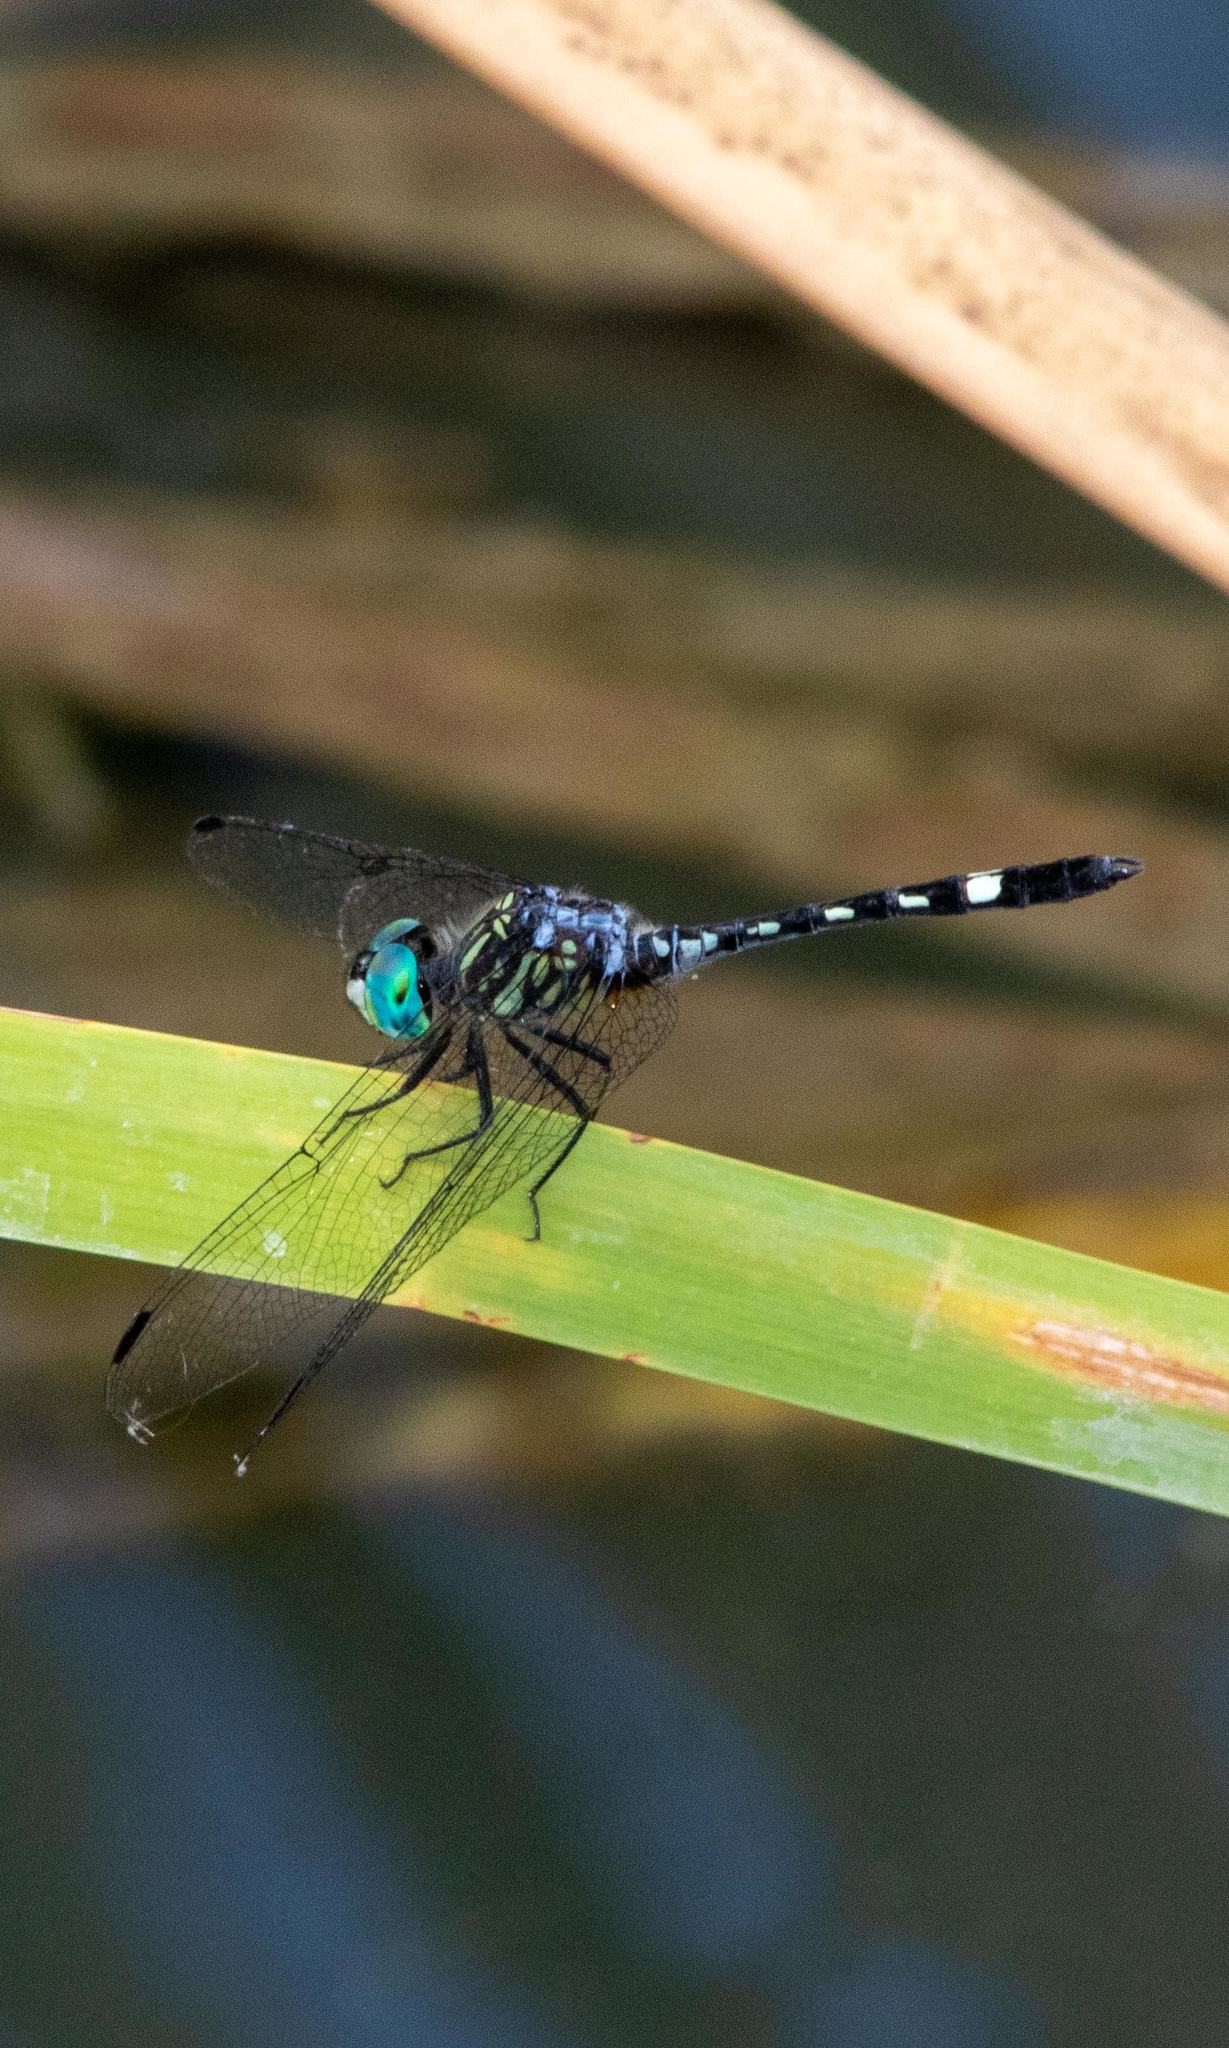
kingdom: Animalia
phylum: Arthropoda
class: Insecta
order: Odonata
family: Libellulidae
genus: Micrathyria
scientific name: Micrathyria hagenii
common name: Thornbush dasher
